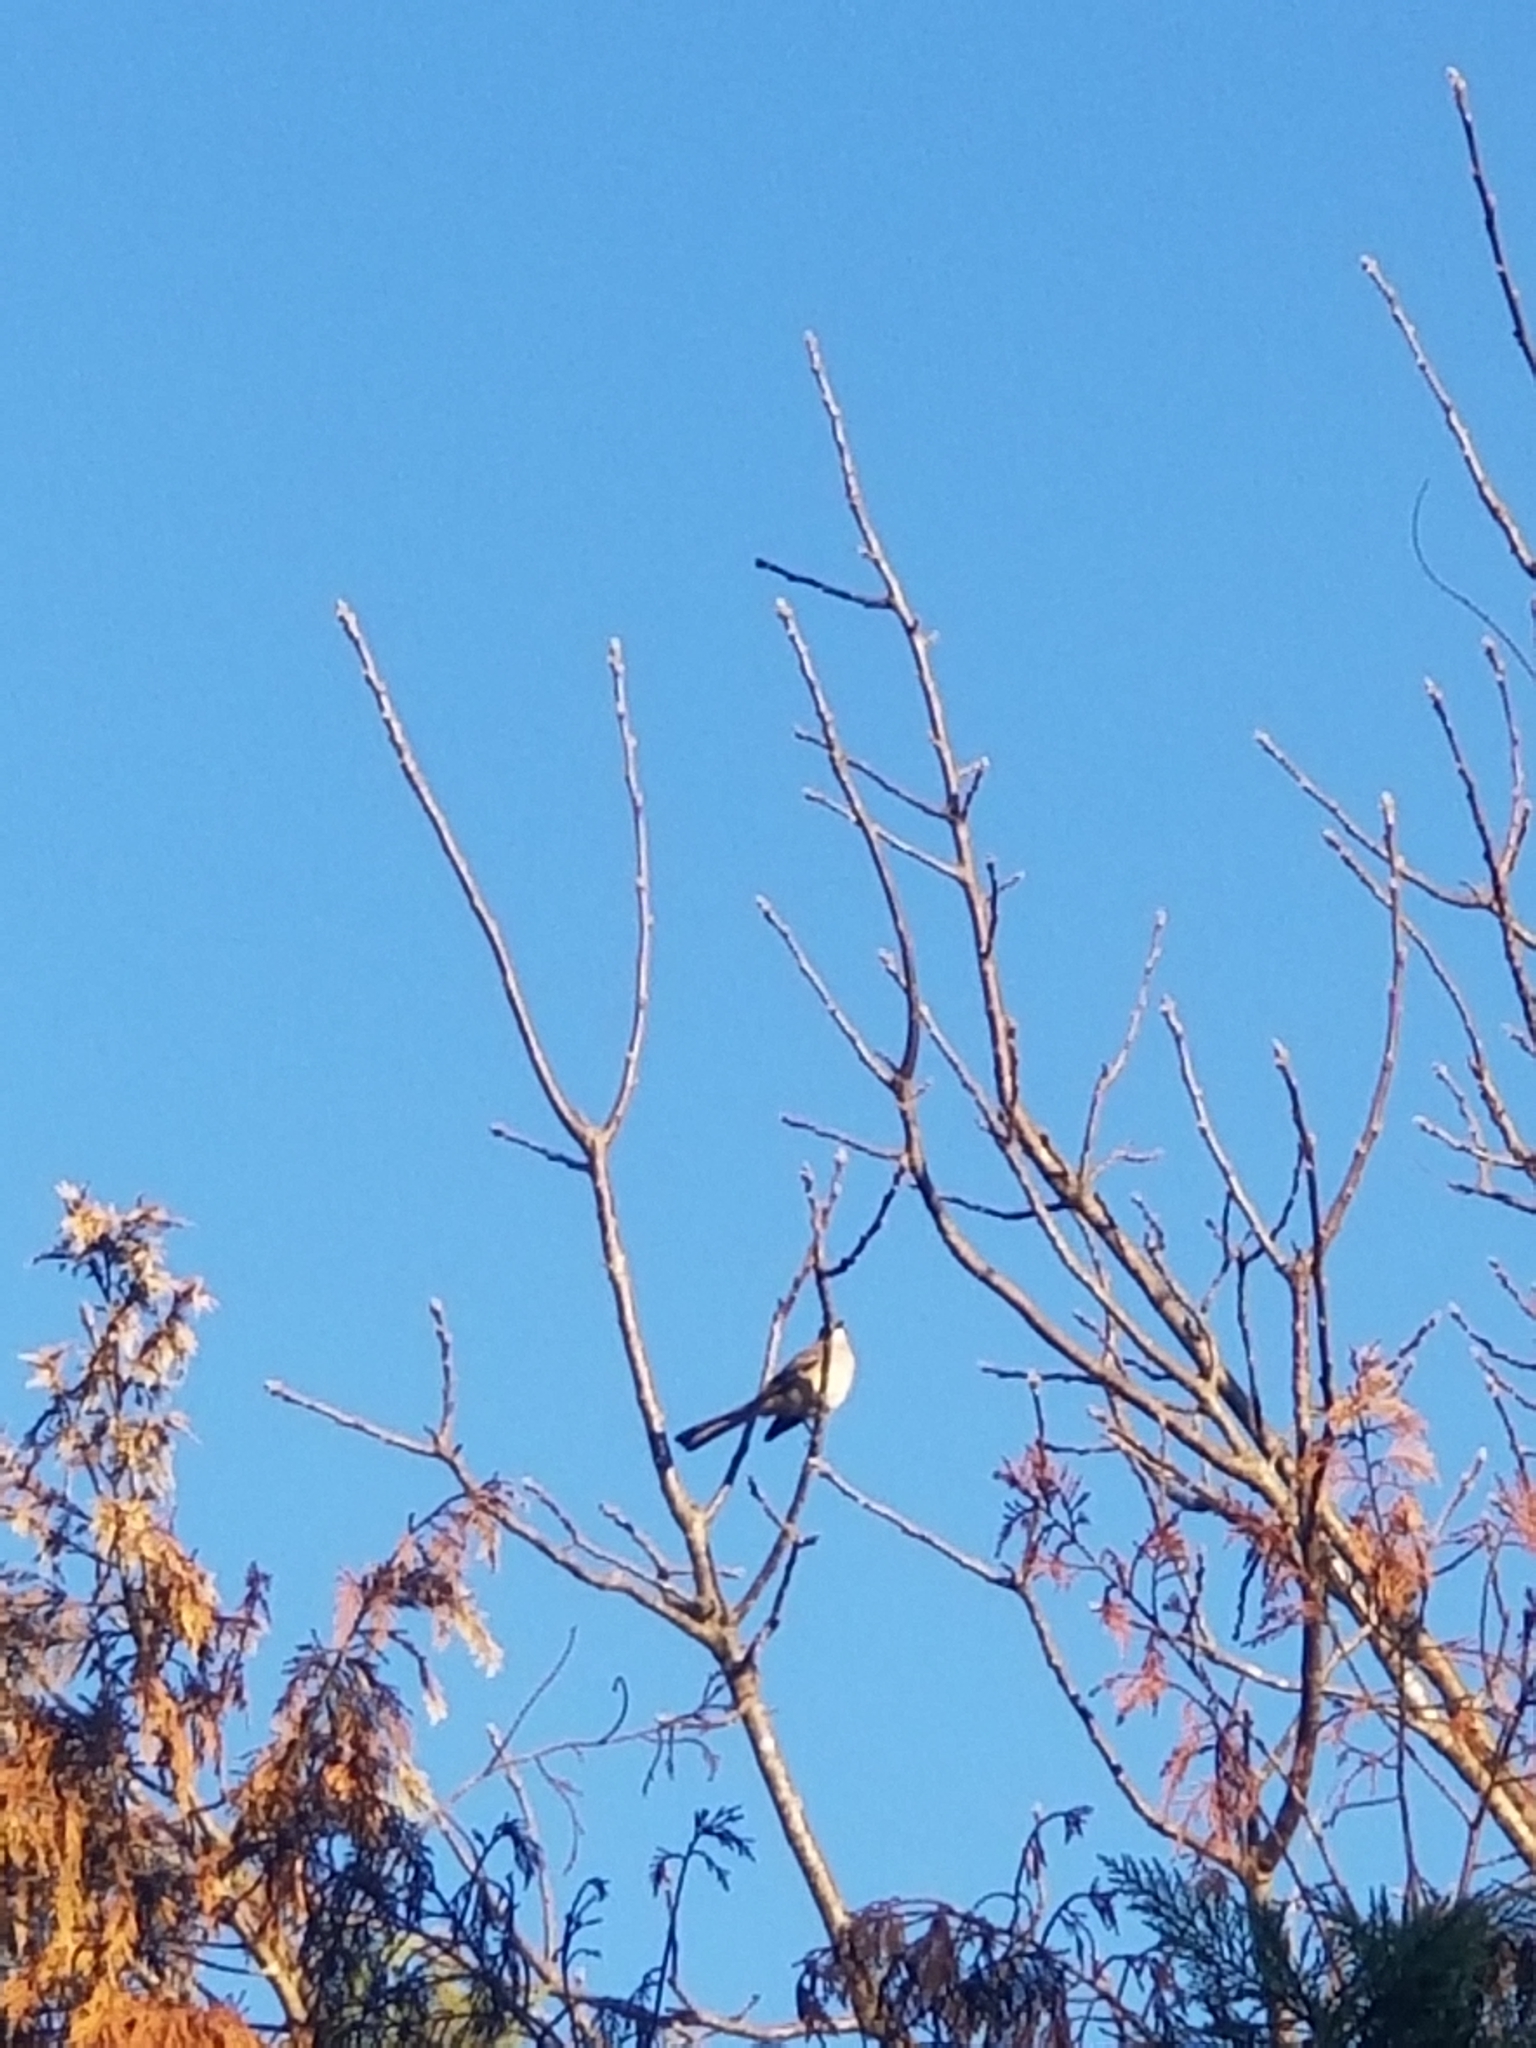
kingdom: Animalia
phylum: Chordata
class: Aves
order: Passeriformes
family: Mimidae
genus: Mimus
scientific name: Mimus polyglottos
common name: Northern mockingbird
